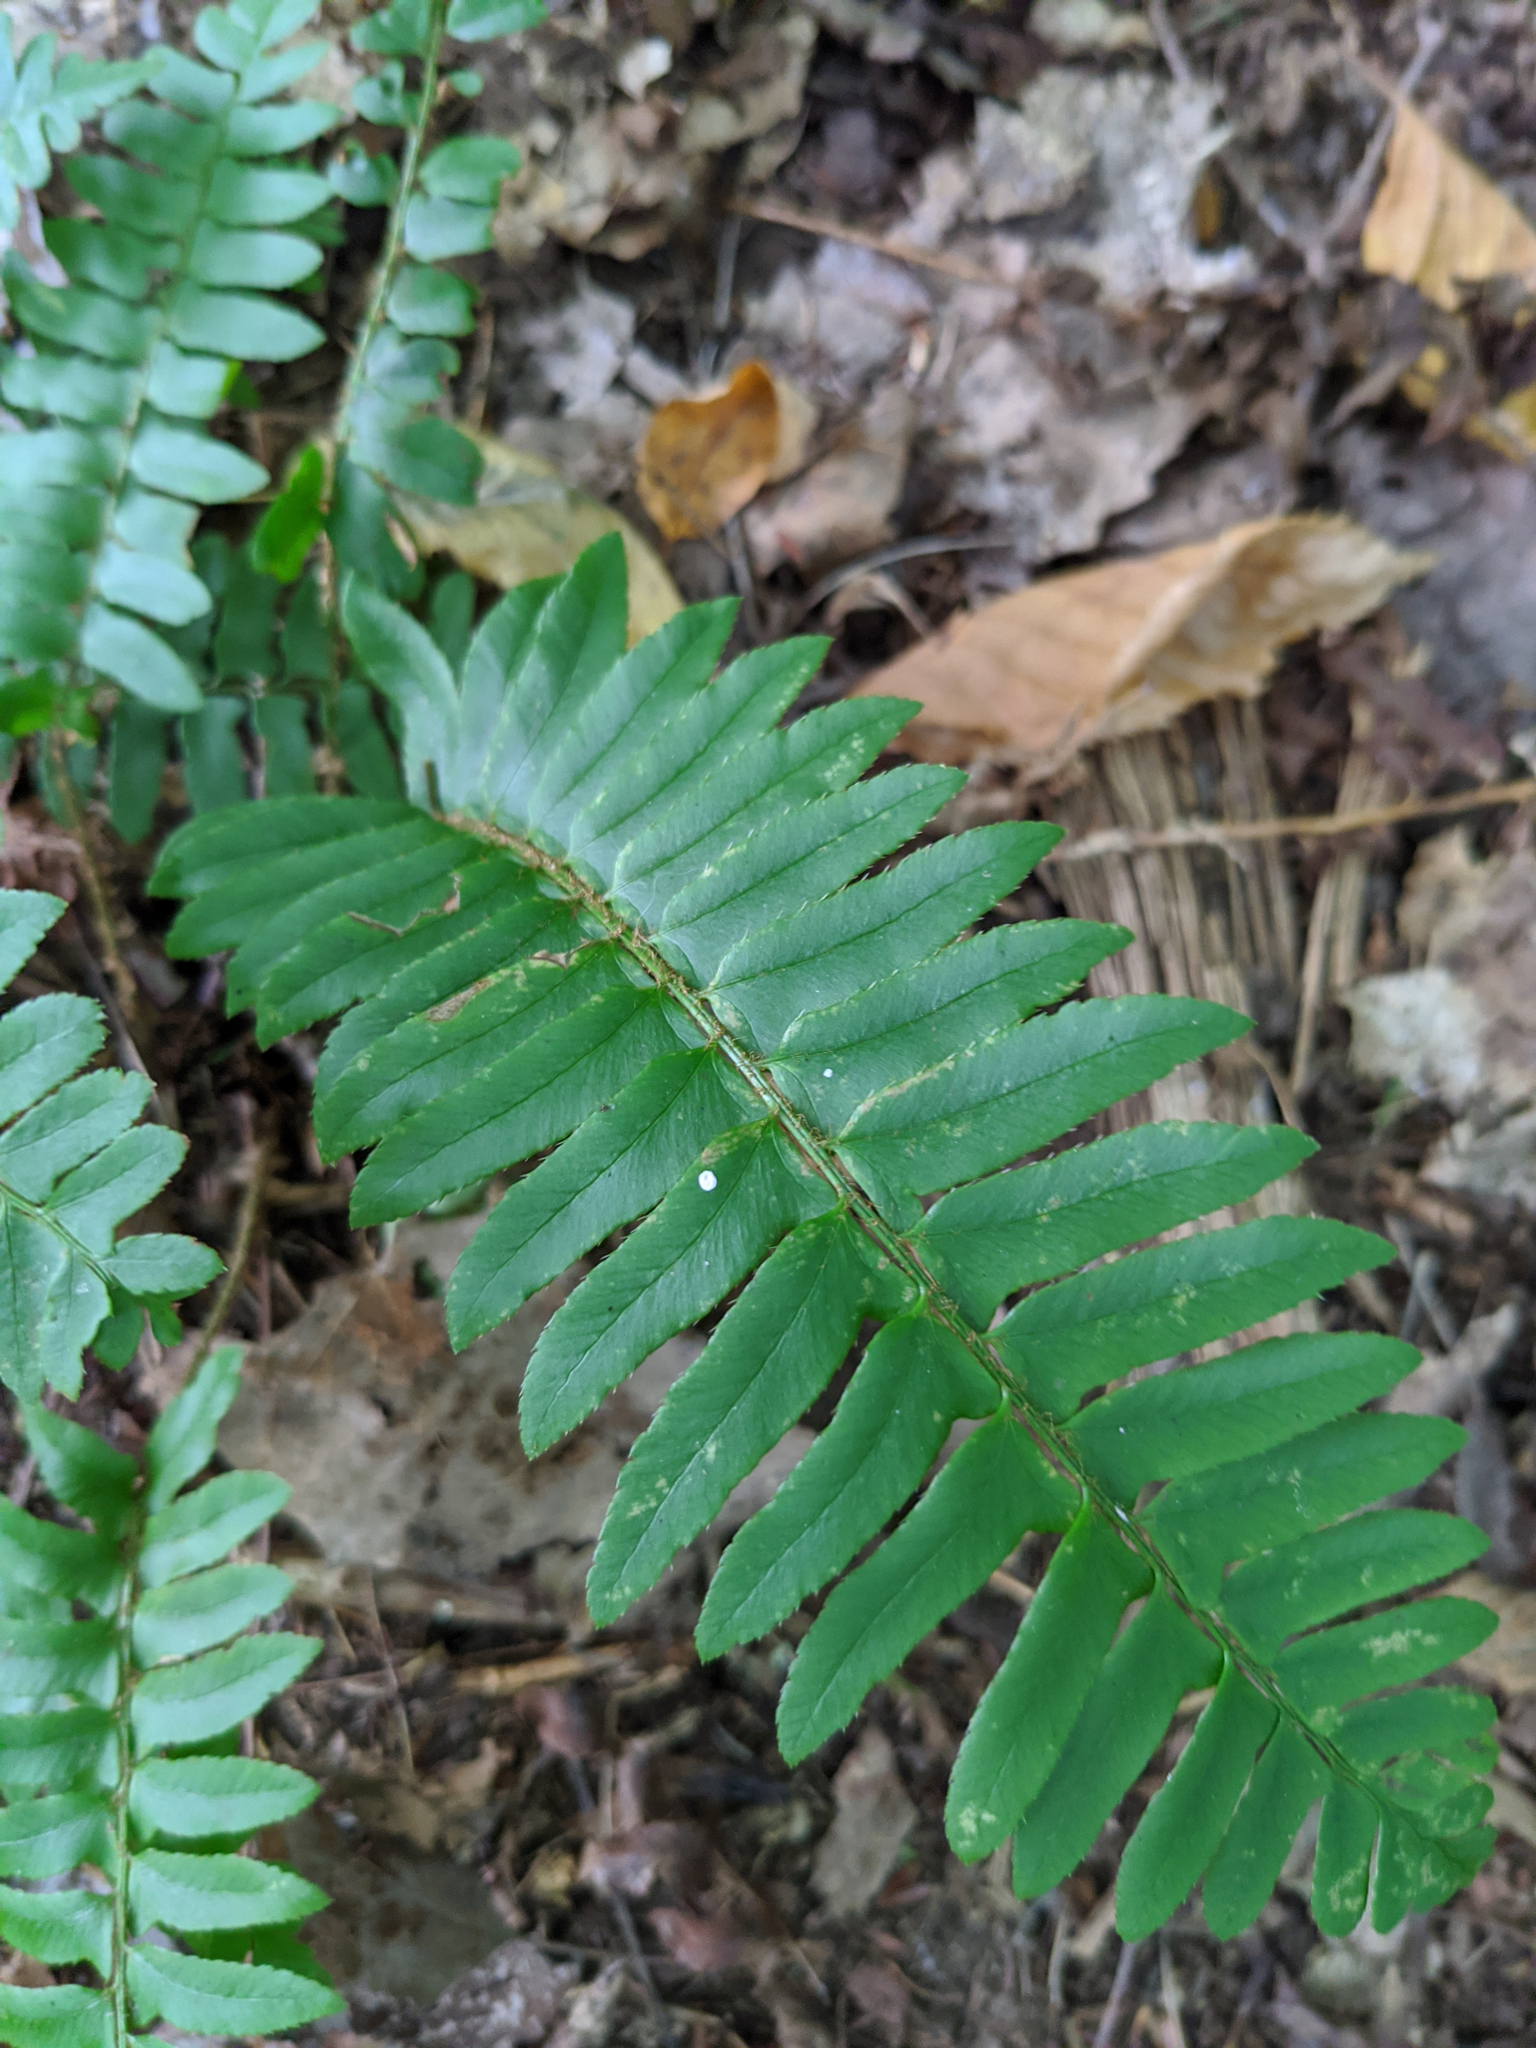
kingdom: Plantae
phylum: Tracheophyta
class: Polypodiopsida
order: Polypodiales
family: Dryopteridaceae
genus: Polystichum
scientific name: Polystichum acrostichoides
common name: Christmas fern
